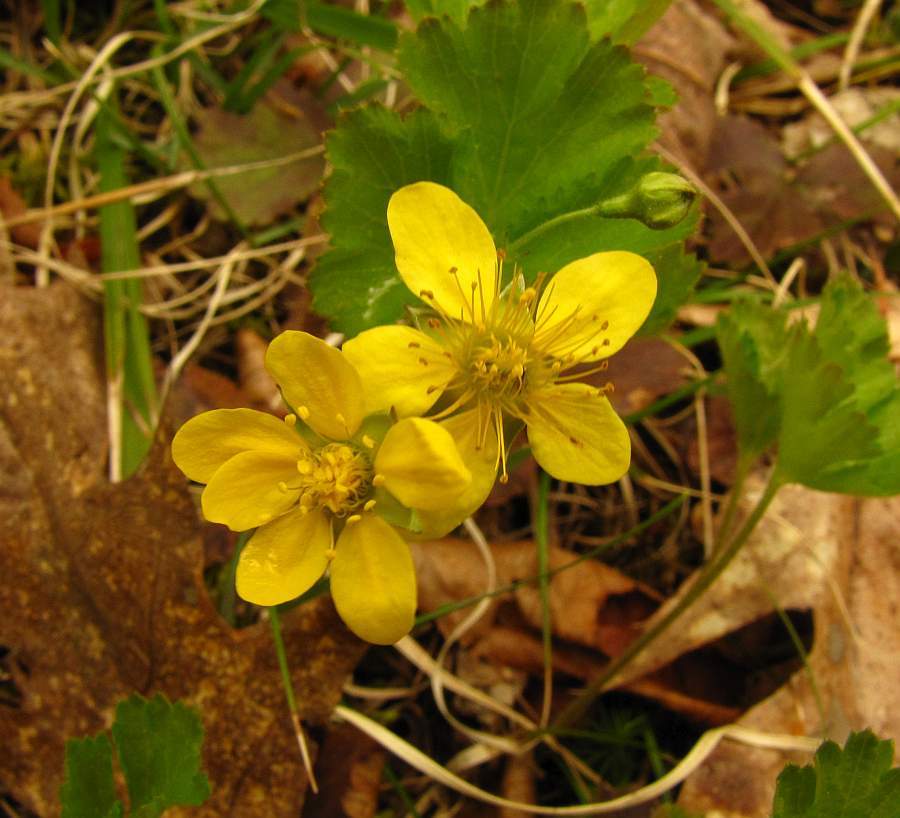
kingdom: Plantae
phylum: Tracheophyta
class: Magnoliopsida
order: Rosales
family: Rosaceae
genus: Geum
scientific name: Geum fragarioides
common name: Appalachian barren strawberry
